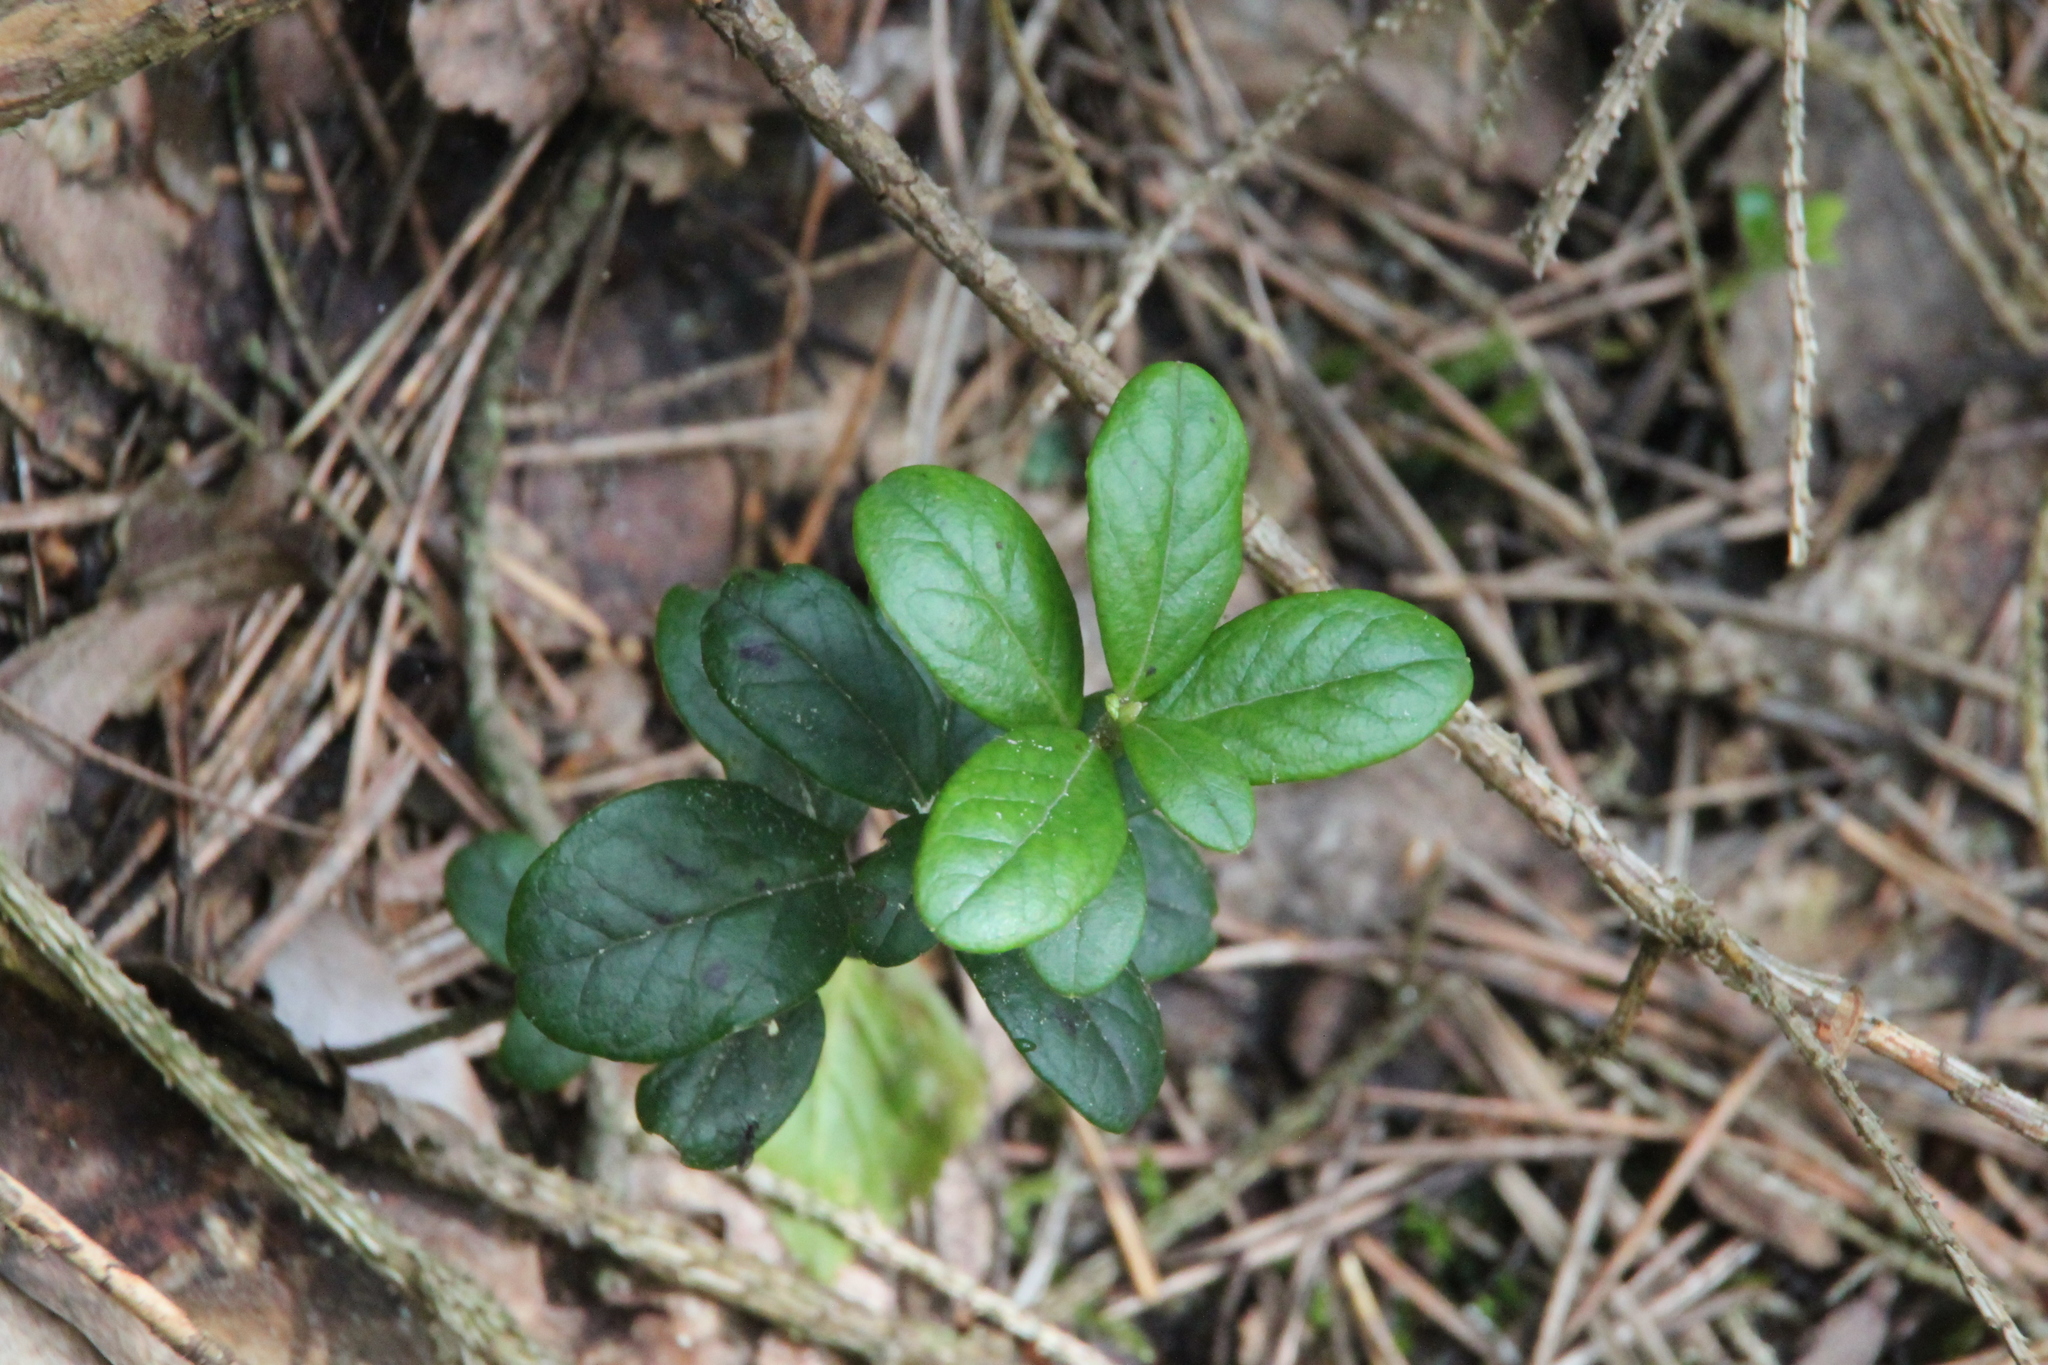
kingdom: Plantae
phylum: Tracheophyta
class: Magnoliopsida
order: Ericales
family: Ericaceae
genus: Vaccinium
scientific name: Vaccinium vitis-idaea
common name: Cowberry
